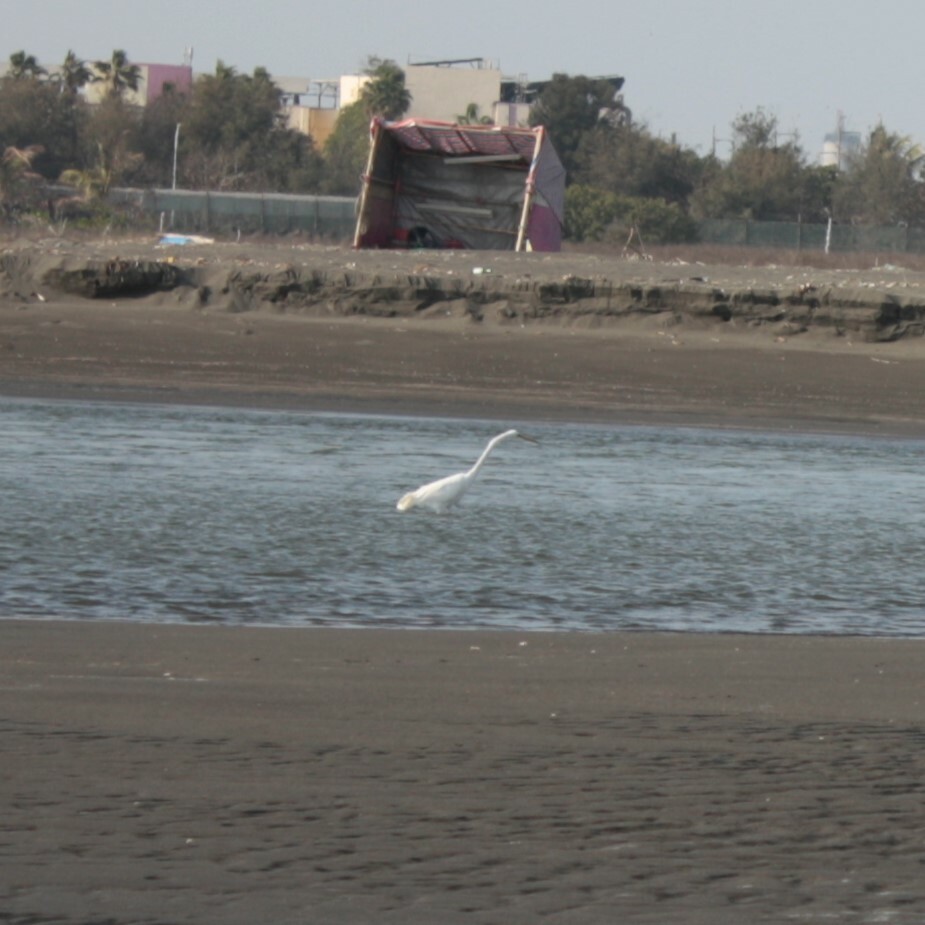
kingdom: Animalia
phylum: Chordata
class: Aves
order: Pelecaniformes
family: Ardeidae
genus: Ardea
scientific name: Ardea alba
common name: Great egret
